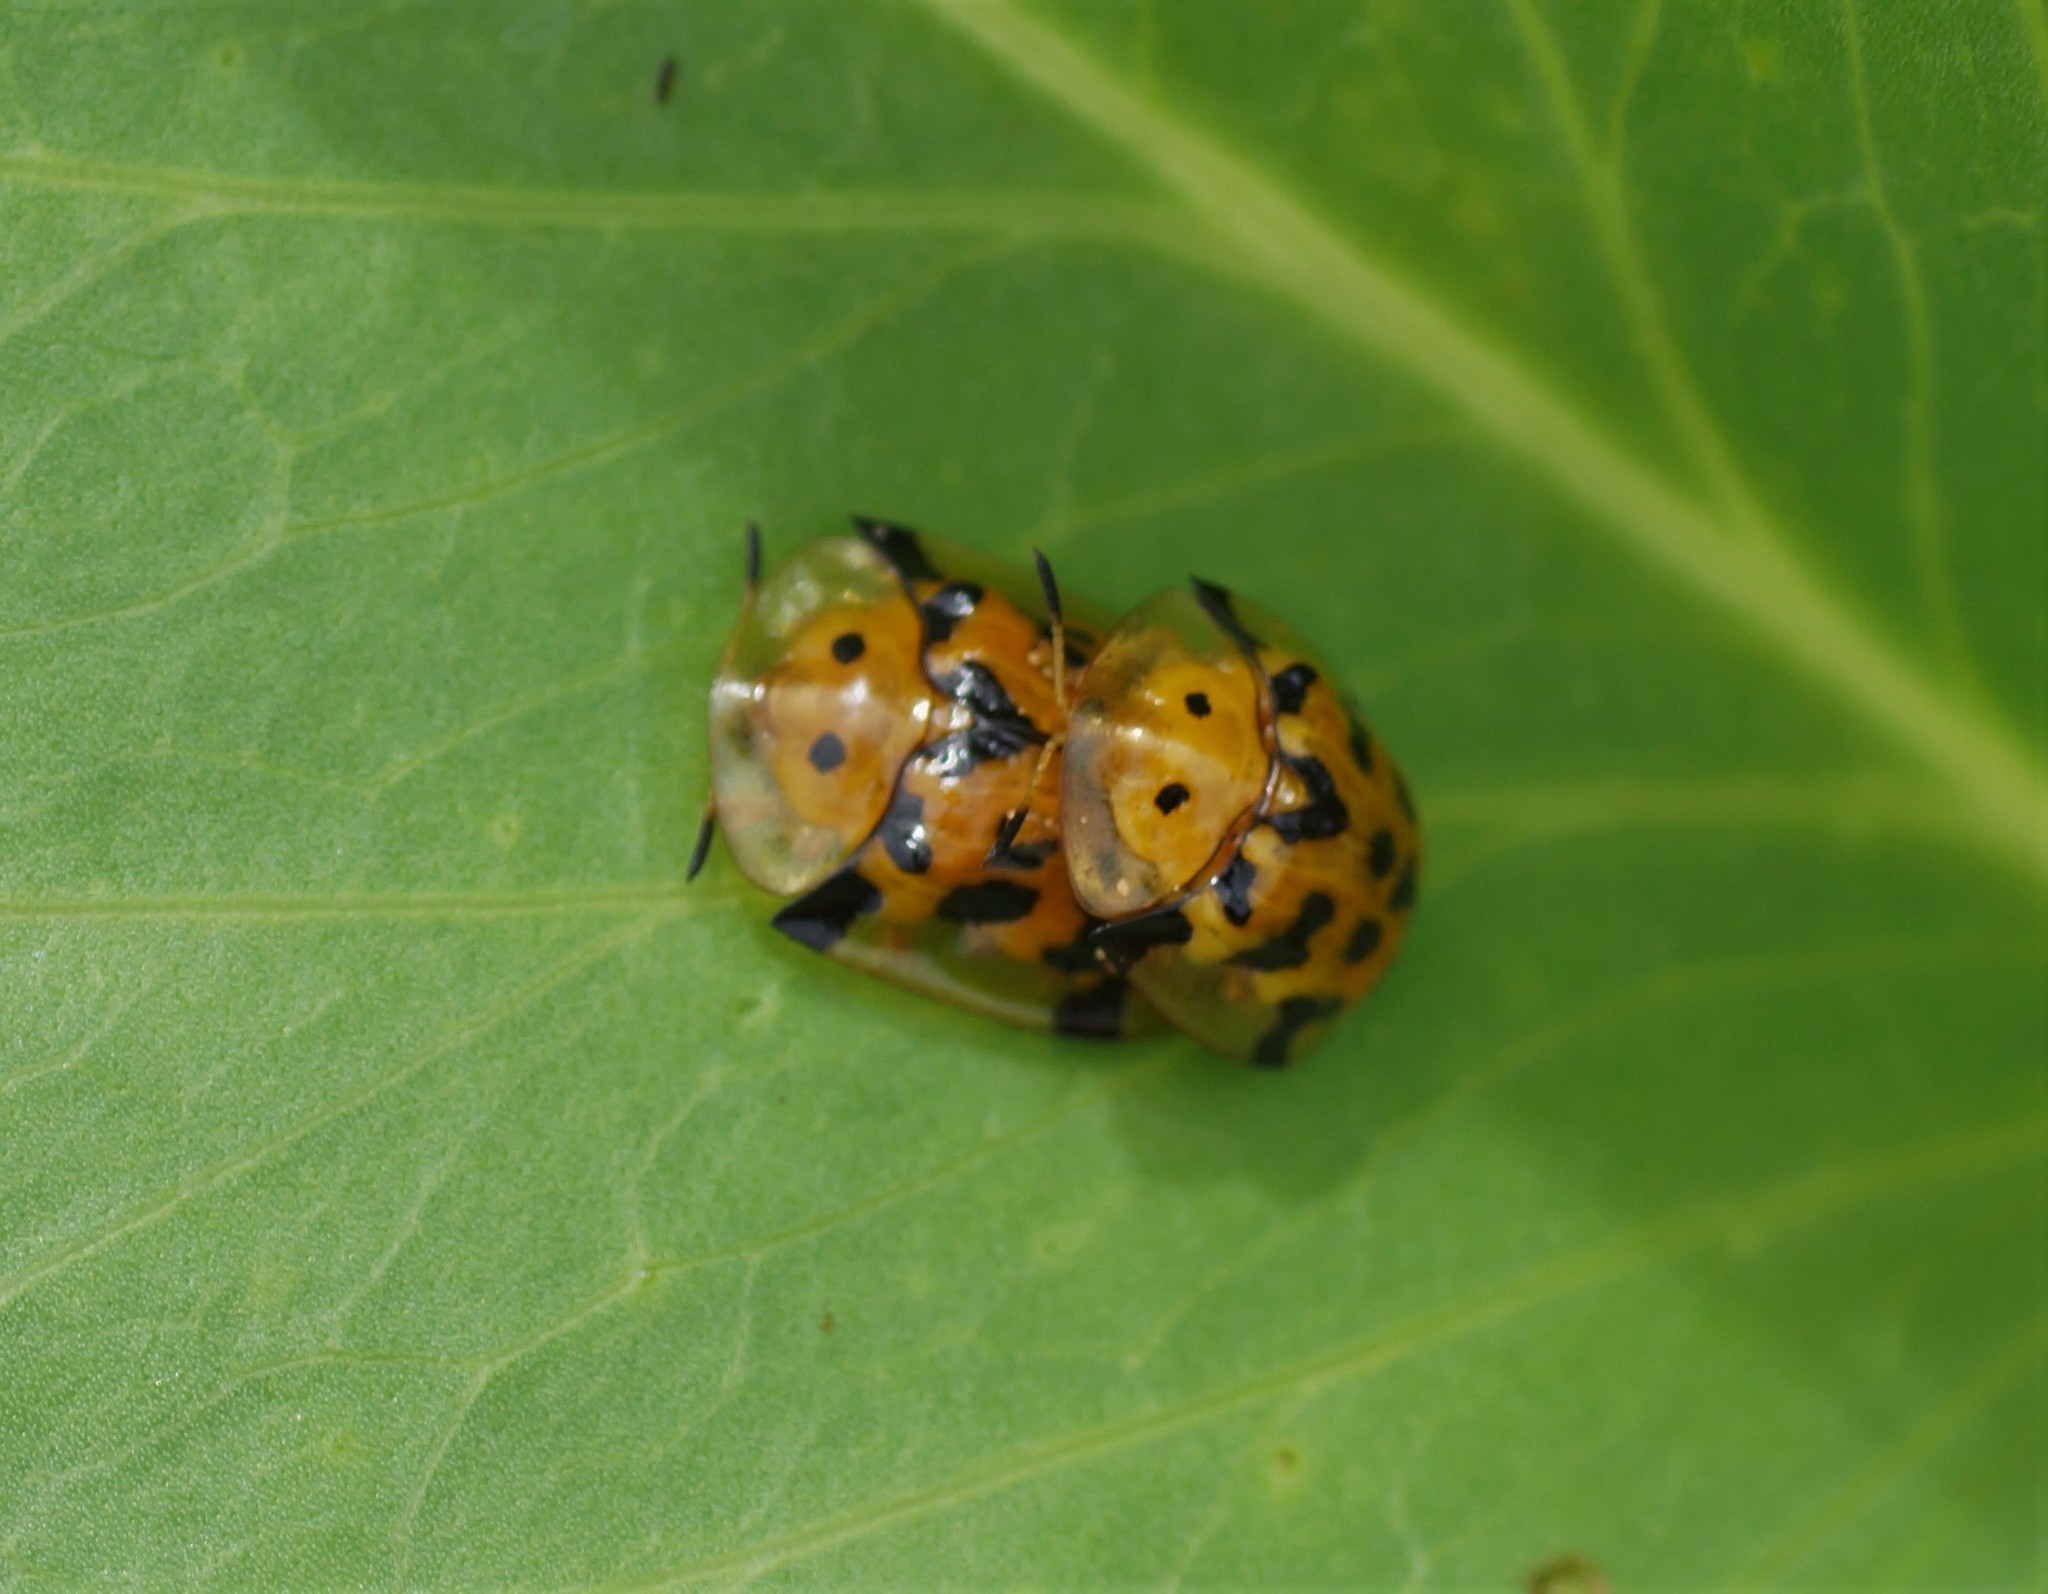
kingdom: Animalia
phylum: Arthropoda
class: Insecta
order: Coleoptera
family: Chrysomelidae
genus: Aspidimorpha
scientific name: Aspidimorpha deusta
